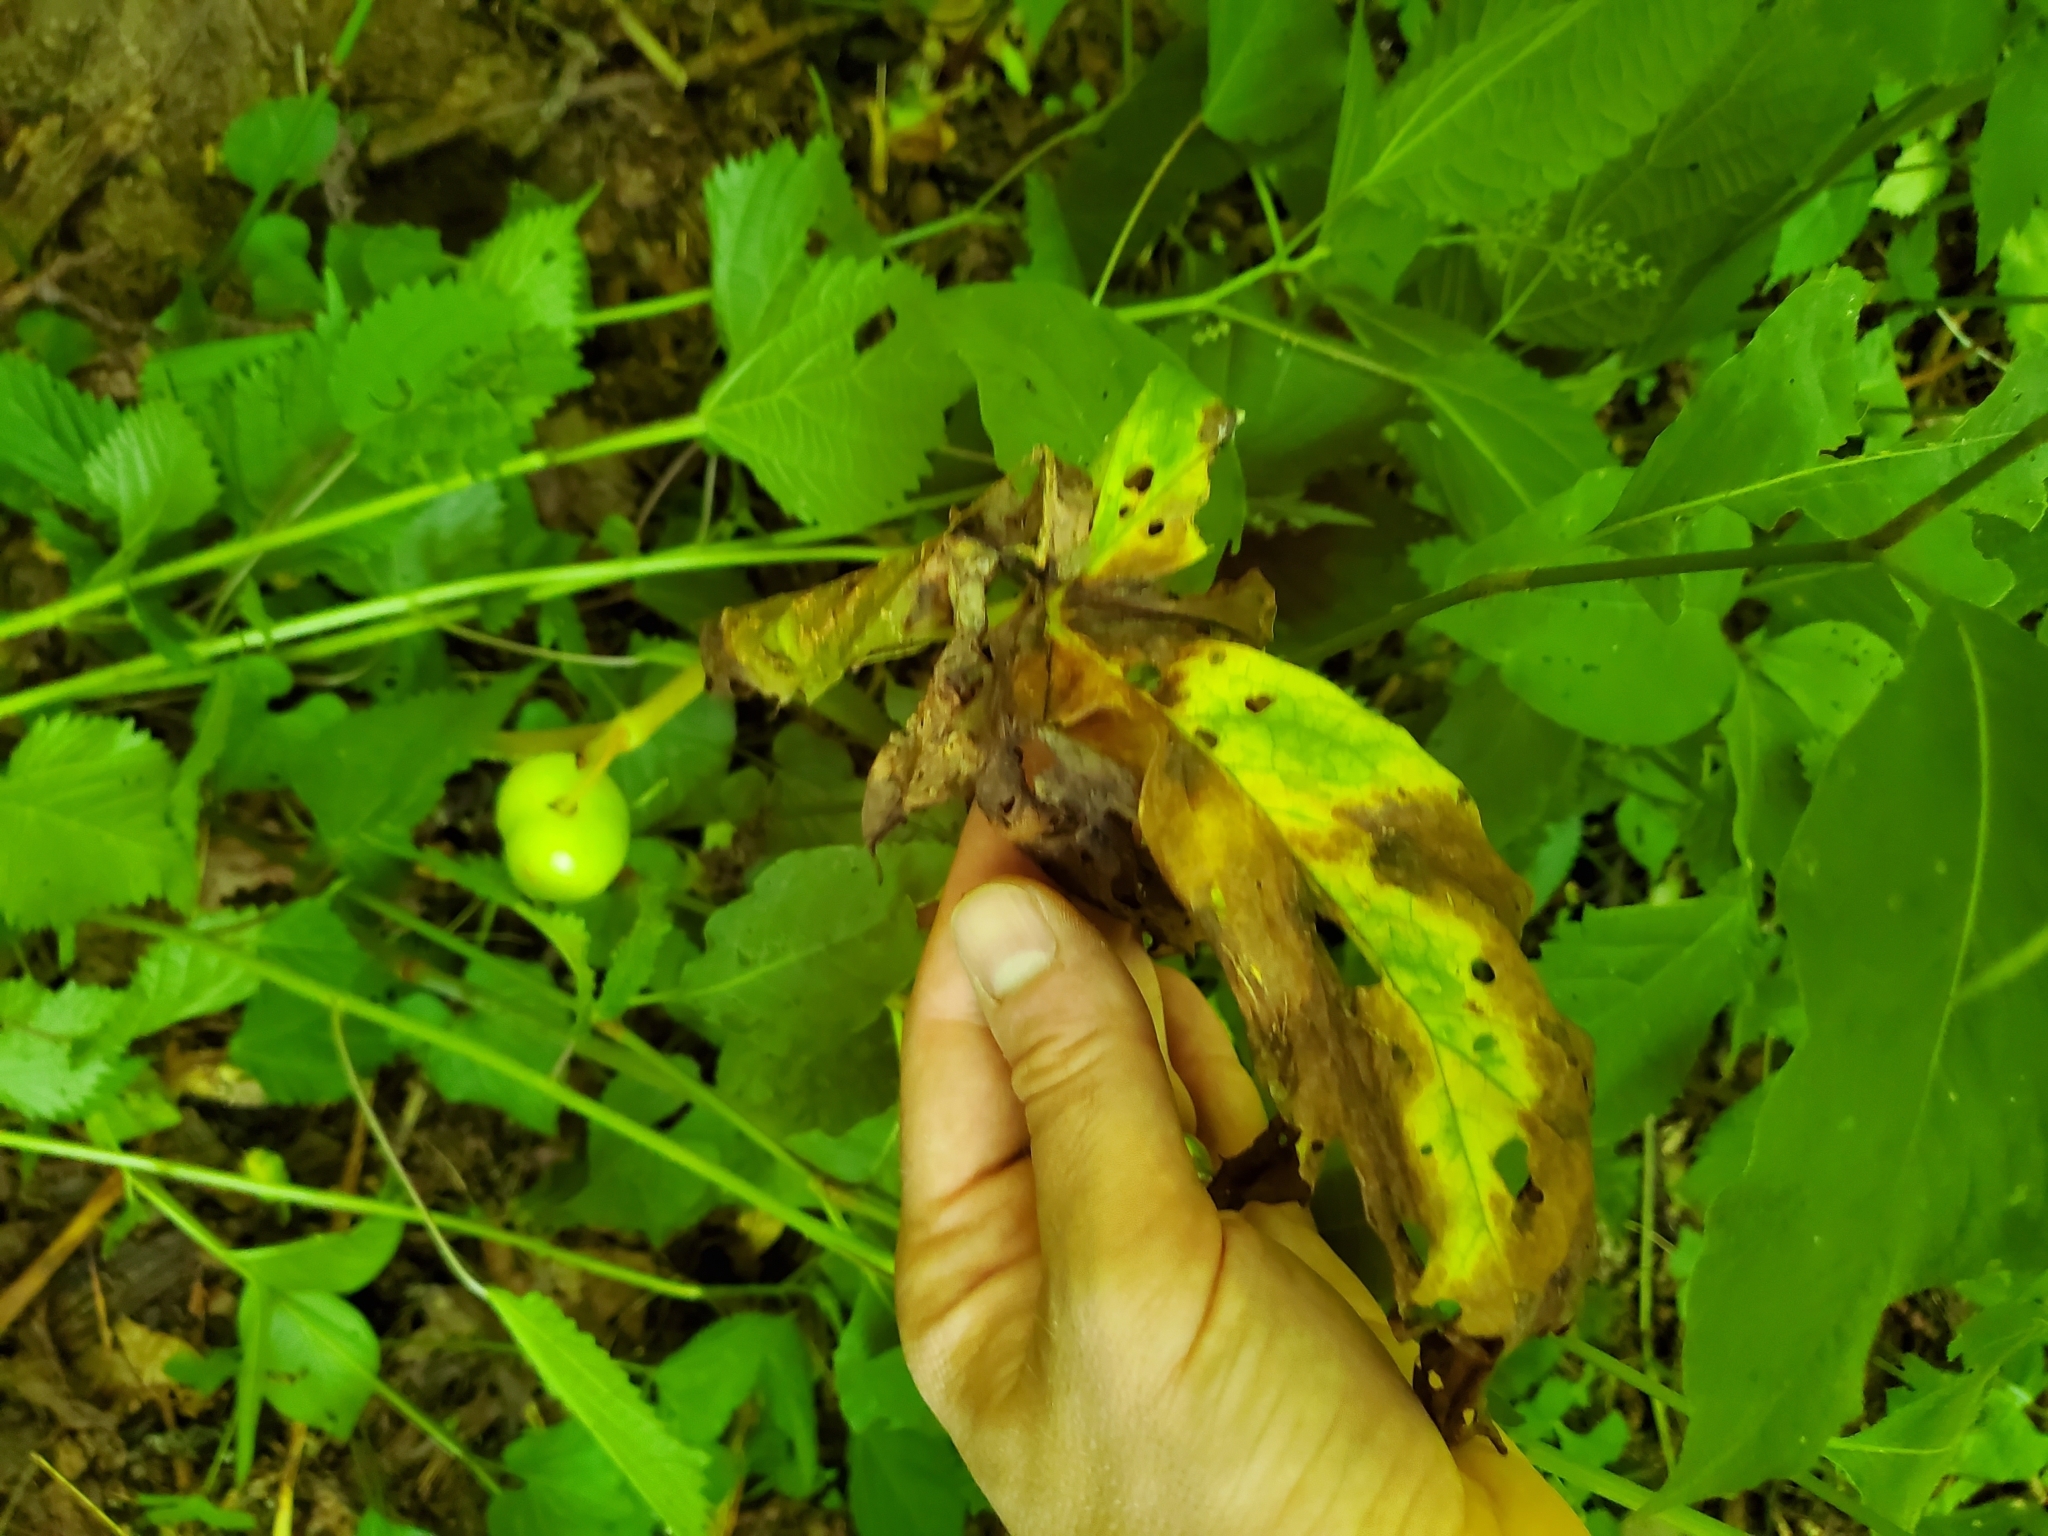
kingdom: Plantae
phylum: Tracheophyta
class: Magnoliopsida
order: Ranunculales
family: Berberidaceae
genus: Podophyllum
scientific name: Podophyllum peltatum
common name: Wild mandrake
